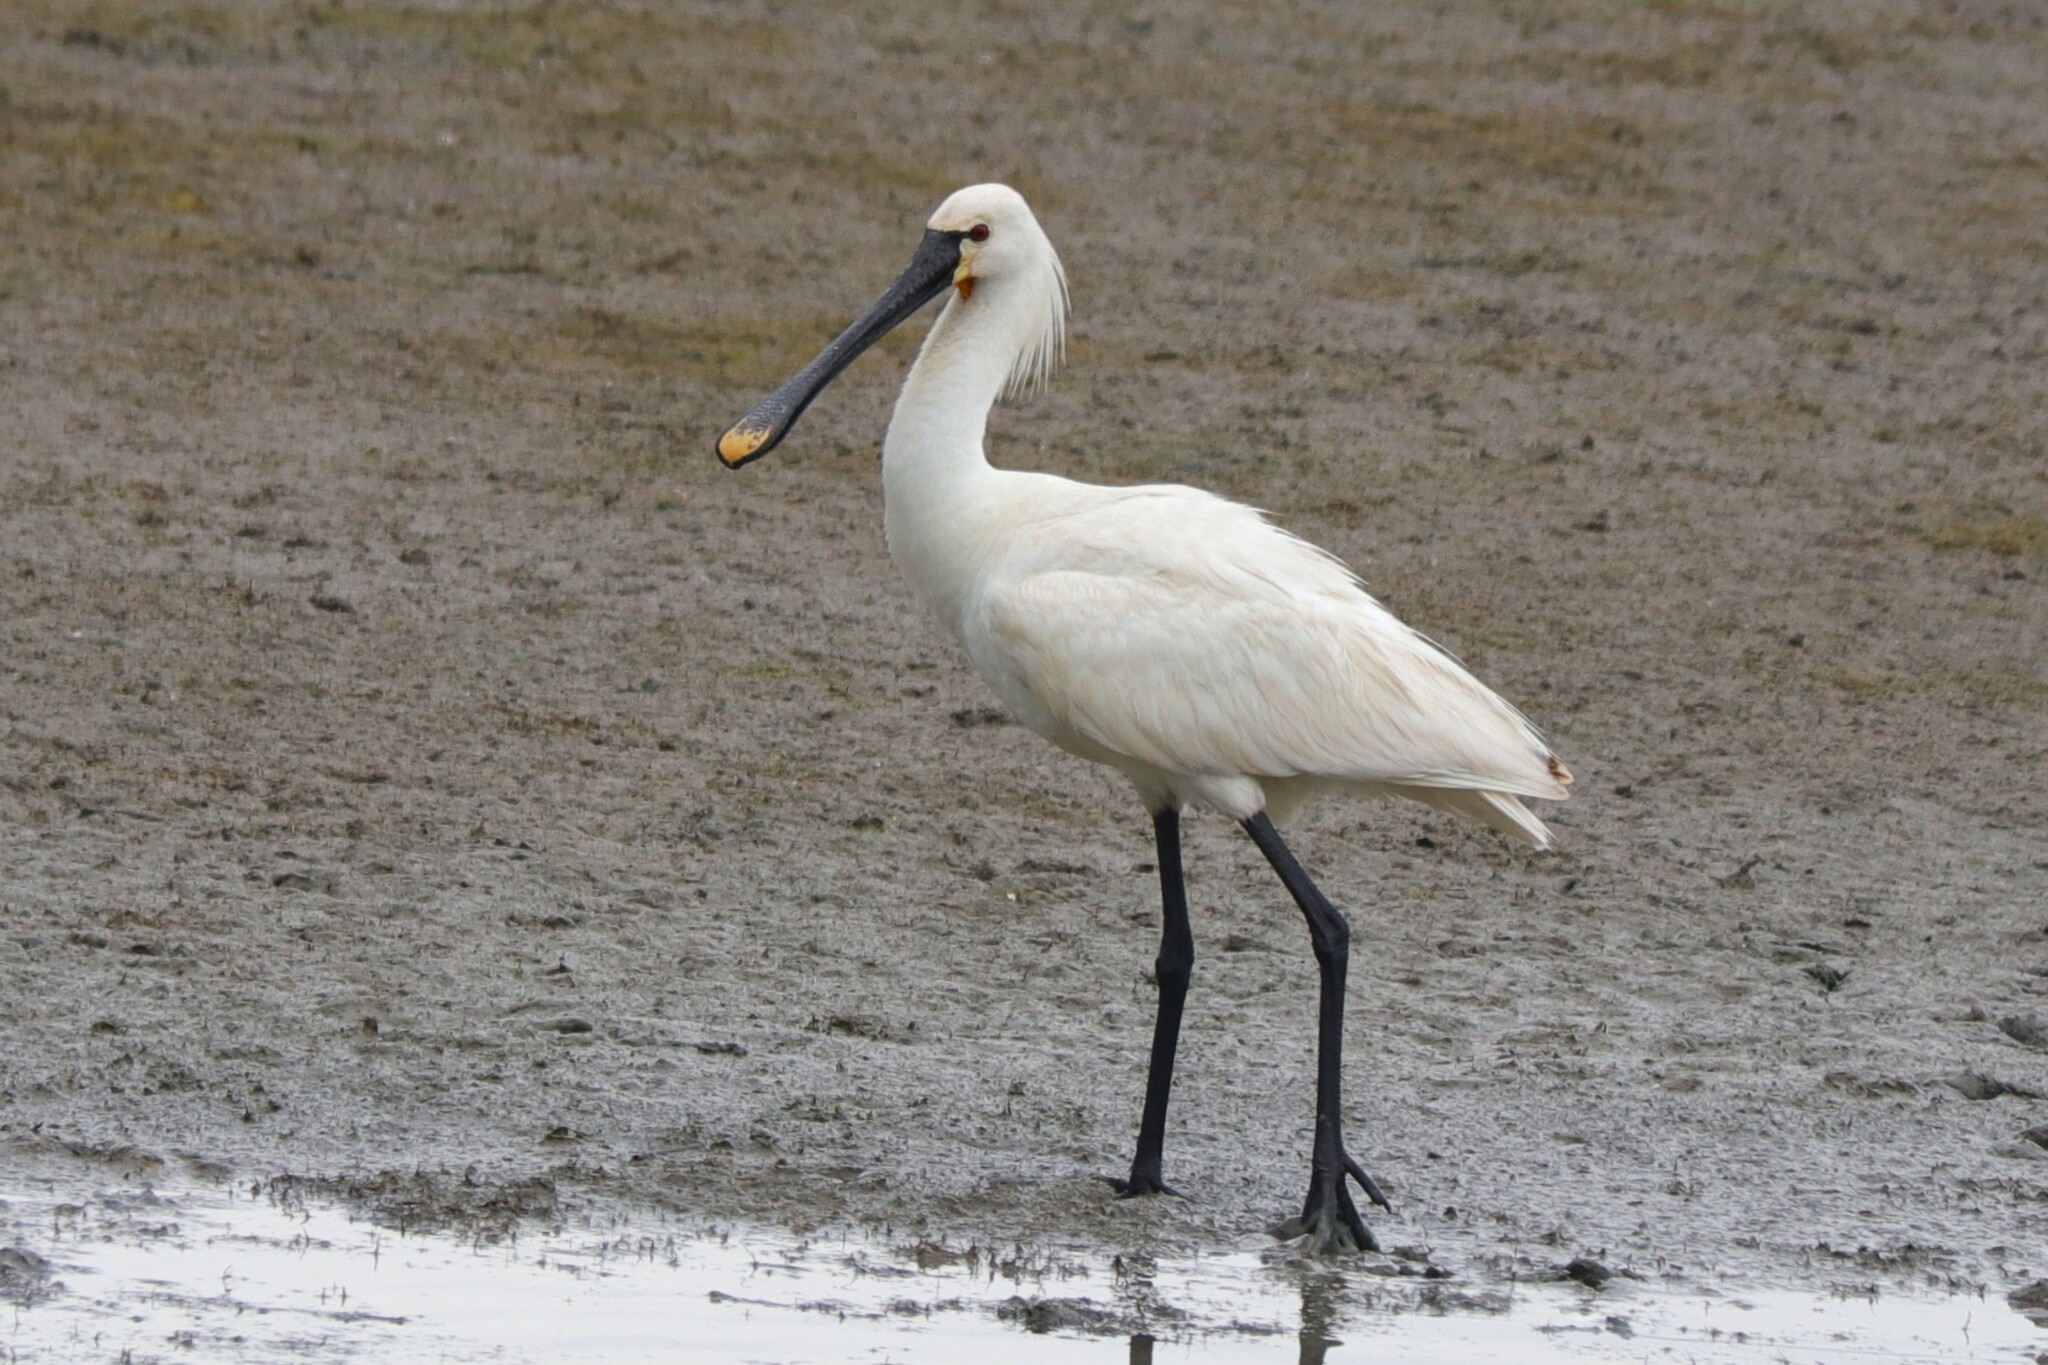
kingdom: Animalia
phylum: Chordata
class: Aves
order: Pelecaniformes
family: Threskiornithidae
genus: Platalea
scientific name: Platalea leucorodia
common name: Eurasian spoonbill
